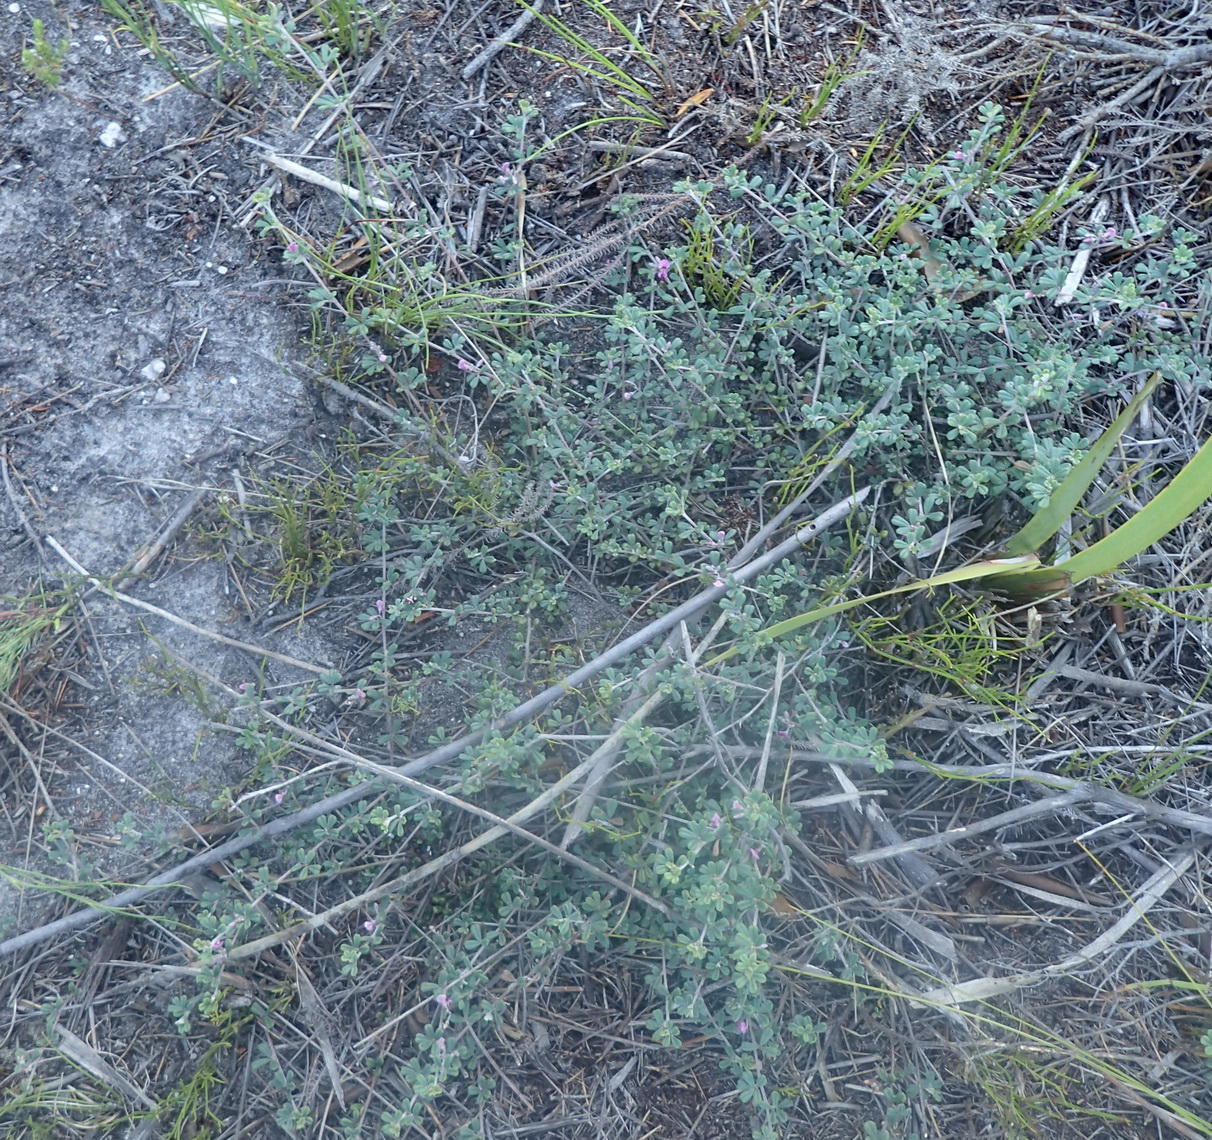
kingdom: Plantae
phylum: Tracheophyta
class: Magnoliopsida
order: Fabales
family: Fabaceae
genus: Indigofera
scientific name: Indigofera
